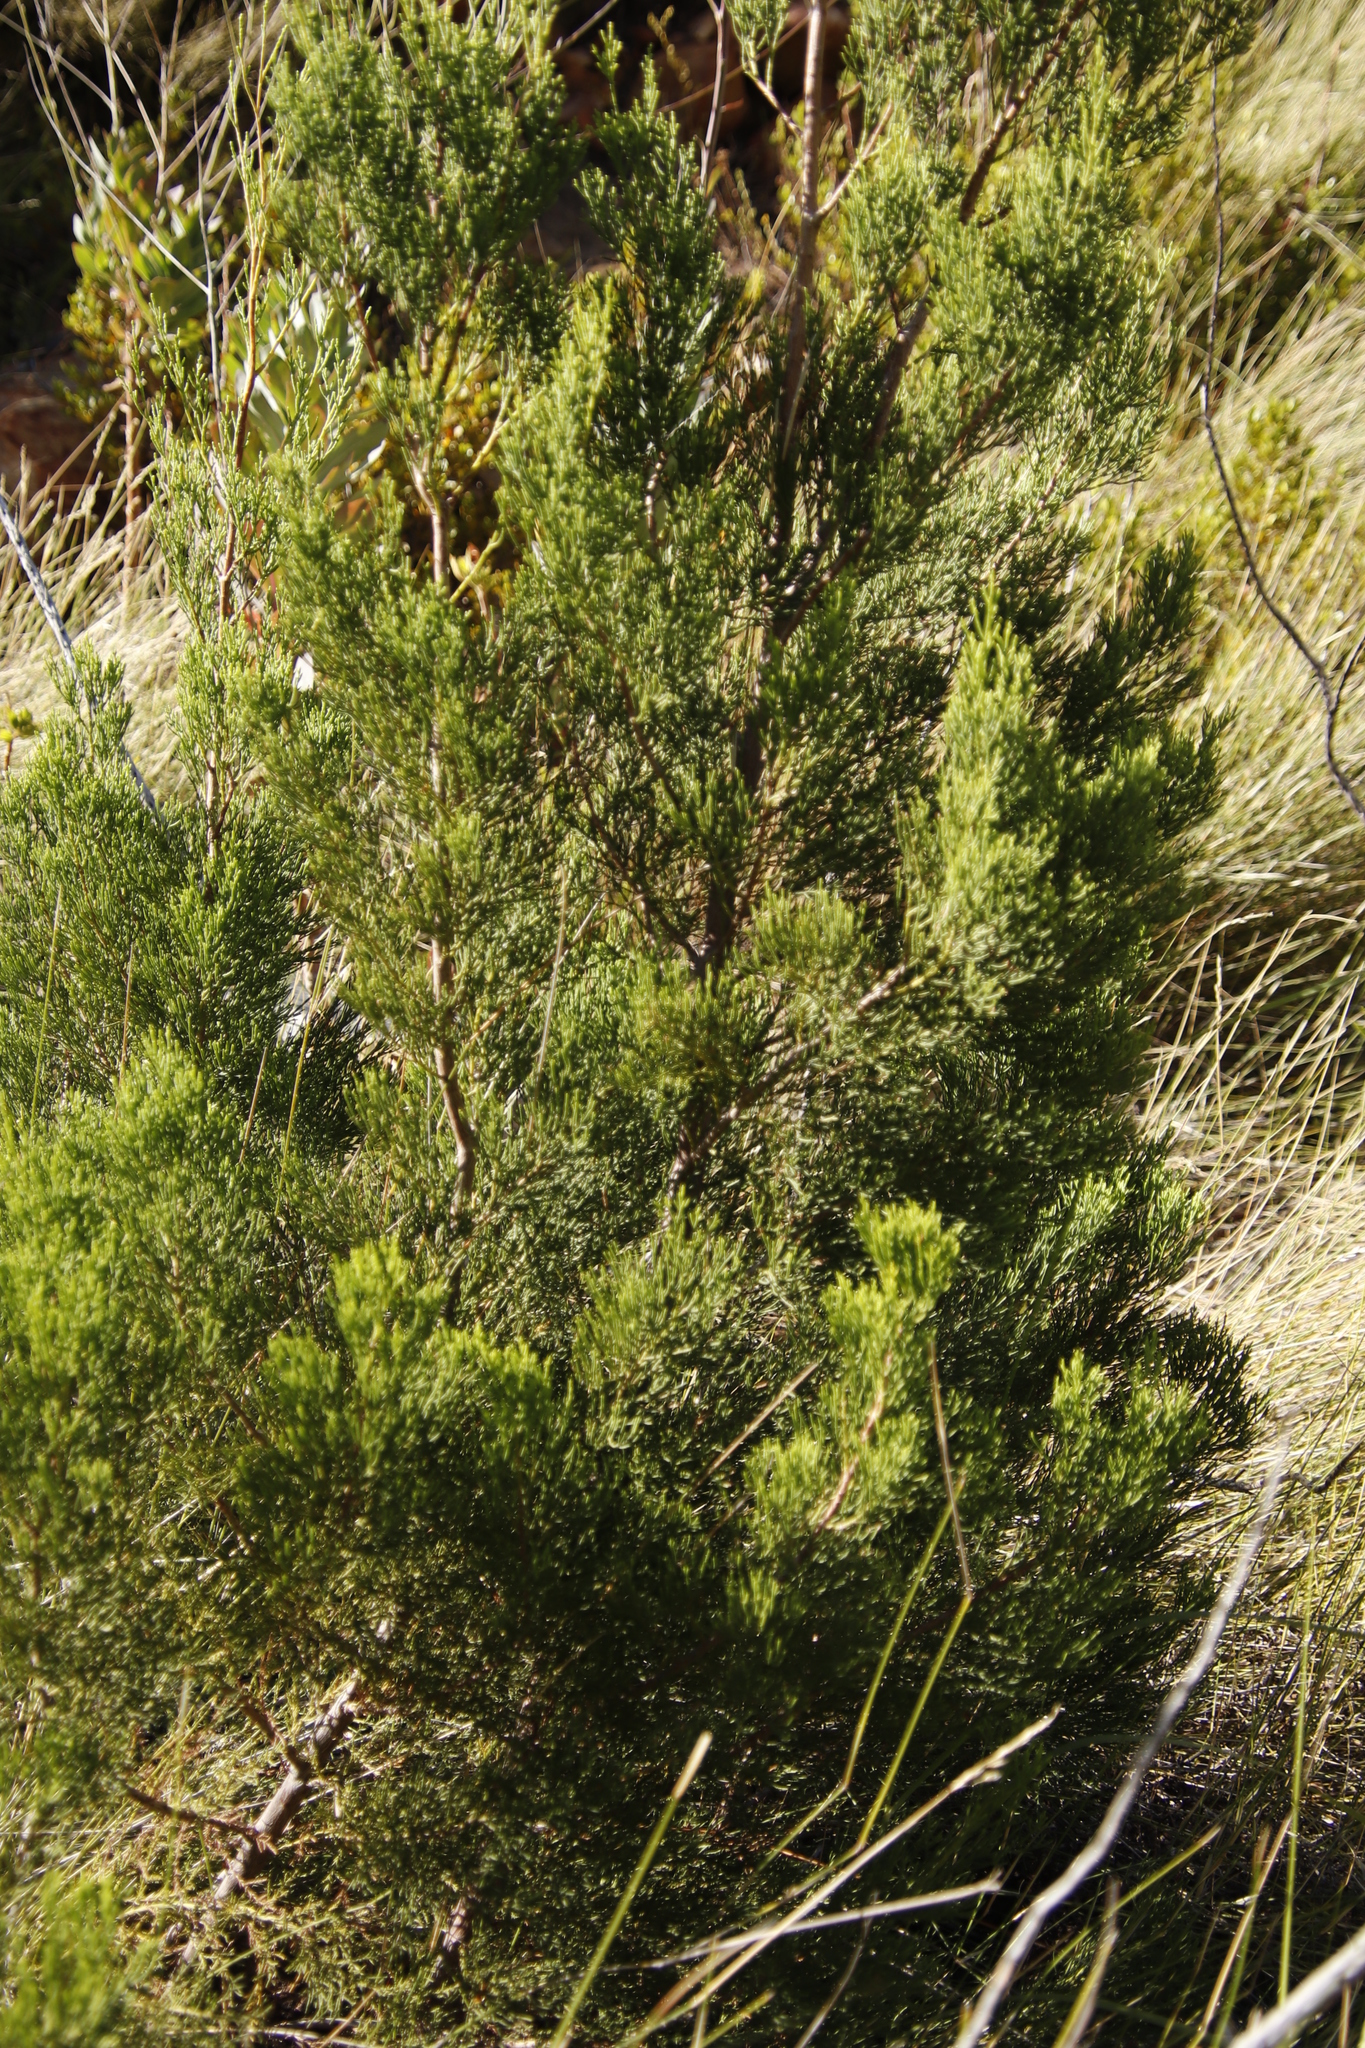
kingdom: Plantae
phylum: Tracheophyta
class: Pinopsida
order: Pinales
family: Cupressaceae
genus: Widdringtonia
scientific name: Widdringtonia nodiflora
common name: Cape cypress
